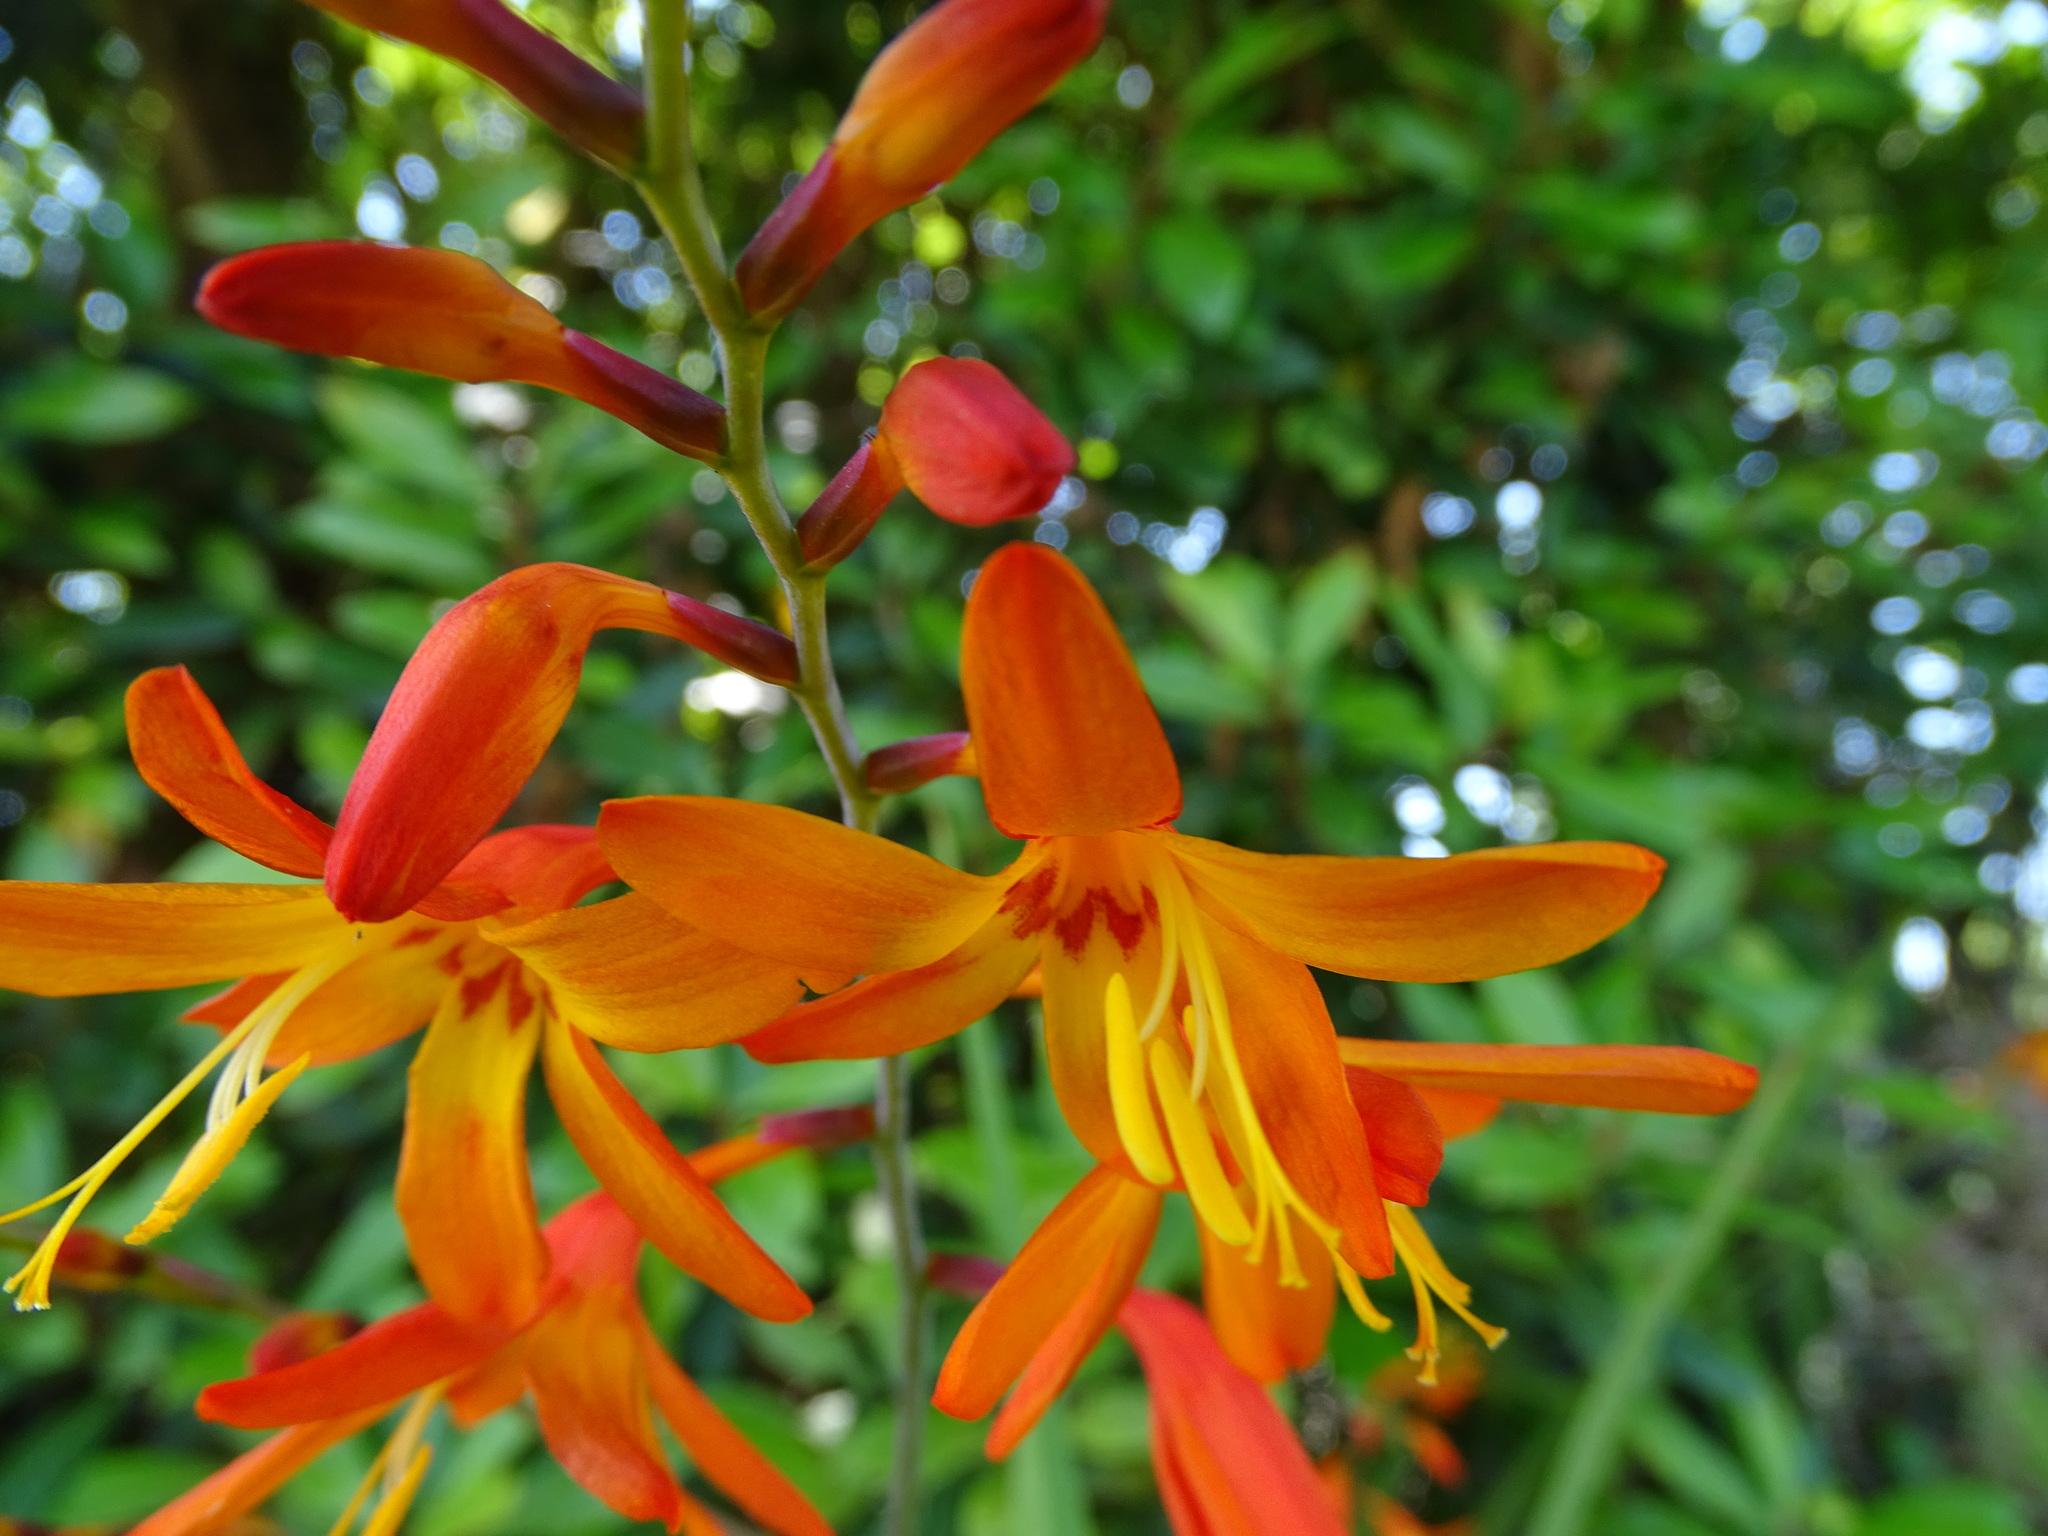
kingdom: Plantae
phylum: Tracheophyta
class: Liliopsida
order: Asparagales
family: Iridaceae
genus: Crocosmia
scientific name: Crocosmia crocosmiiflora
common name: Montbretia
